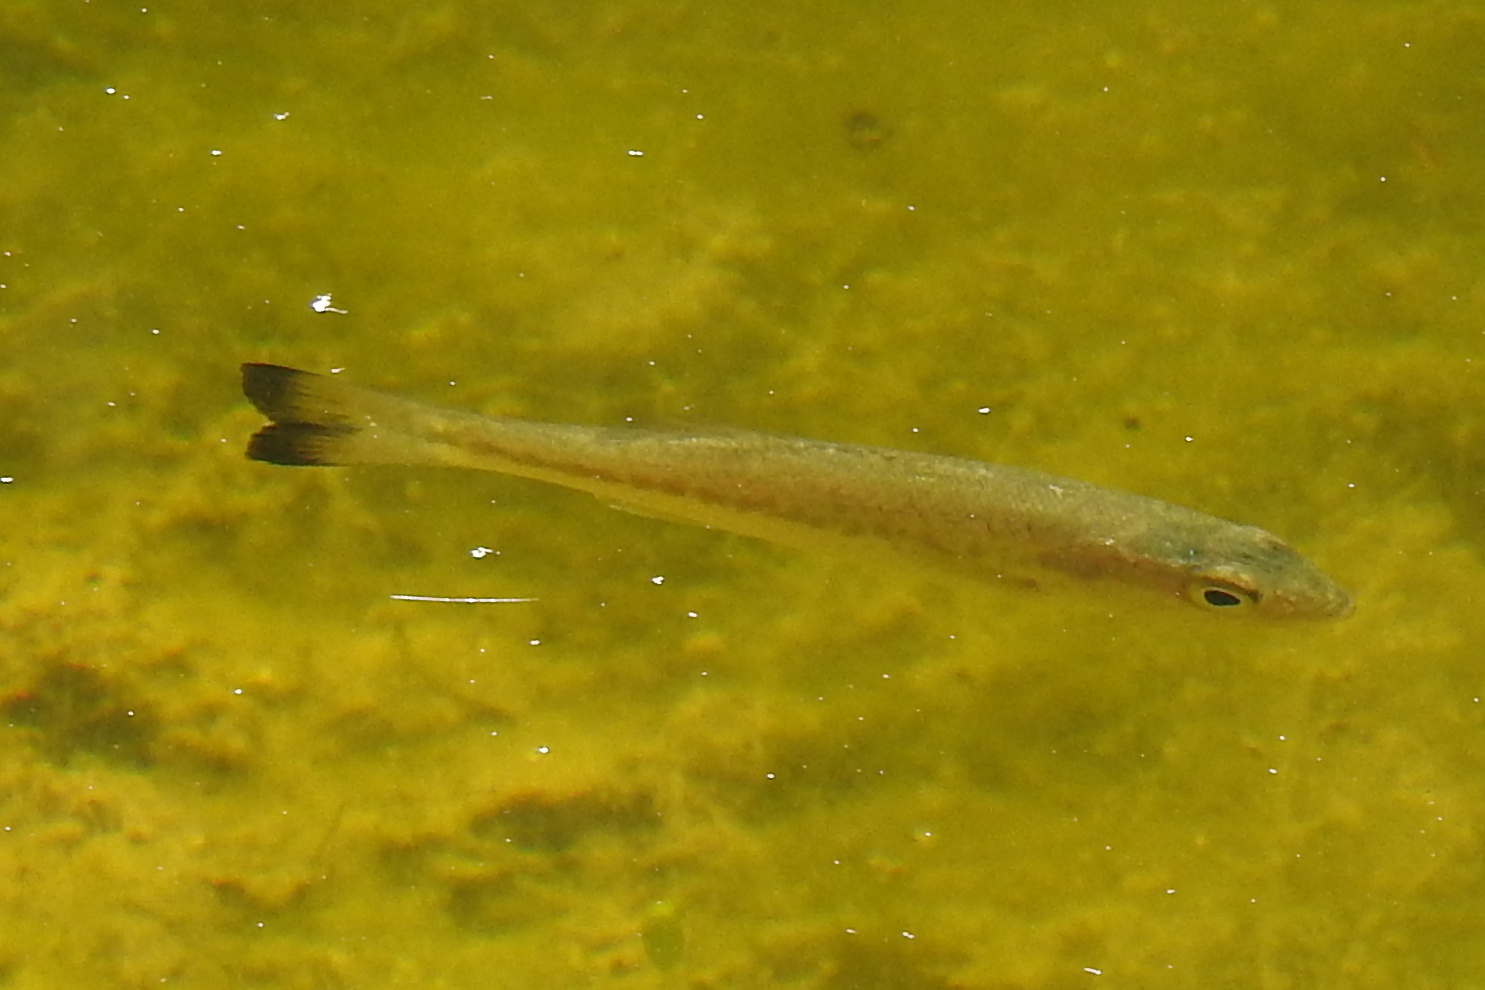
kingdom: Animalia
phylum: Chordata
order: Perciformes
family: Centrarchidae
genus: Micropterus
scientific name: Micropterus
